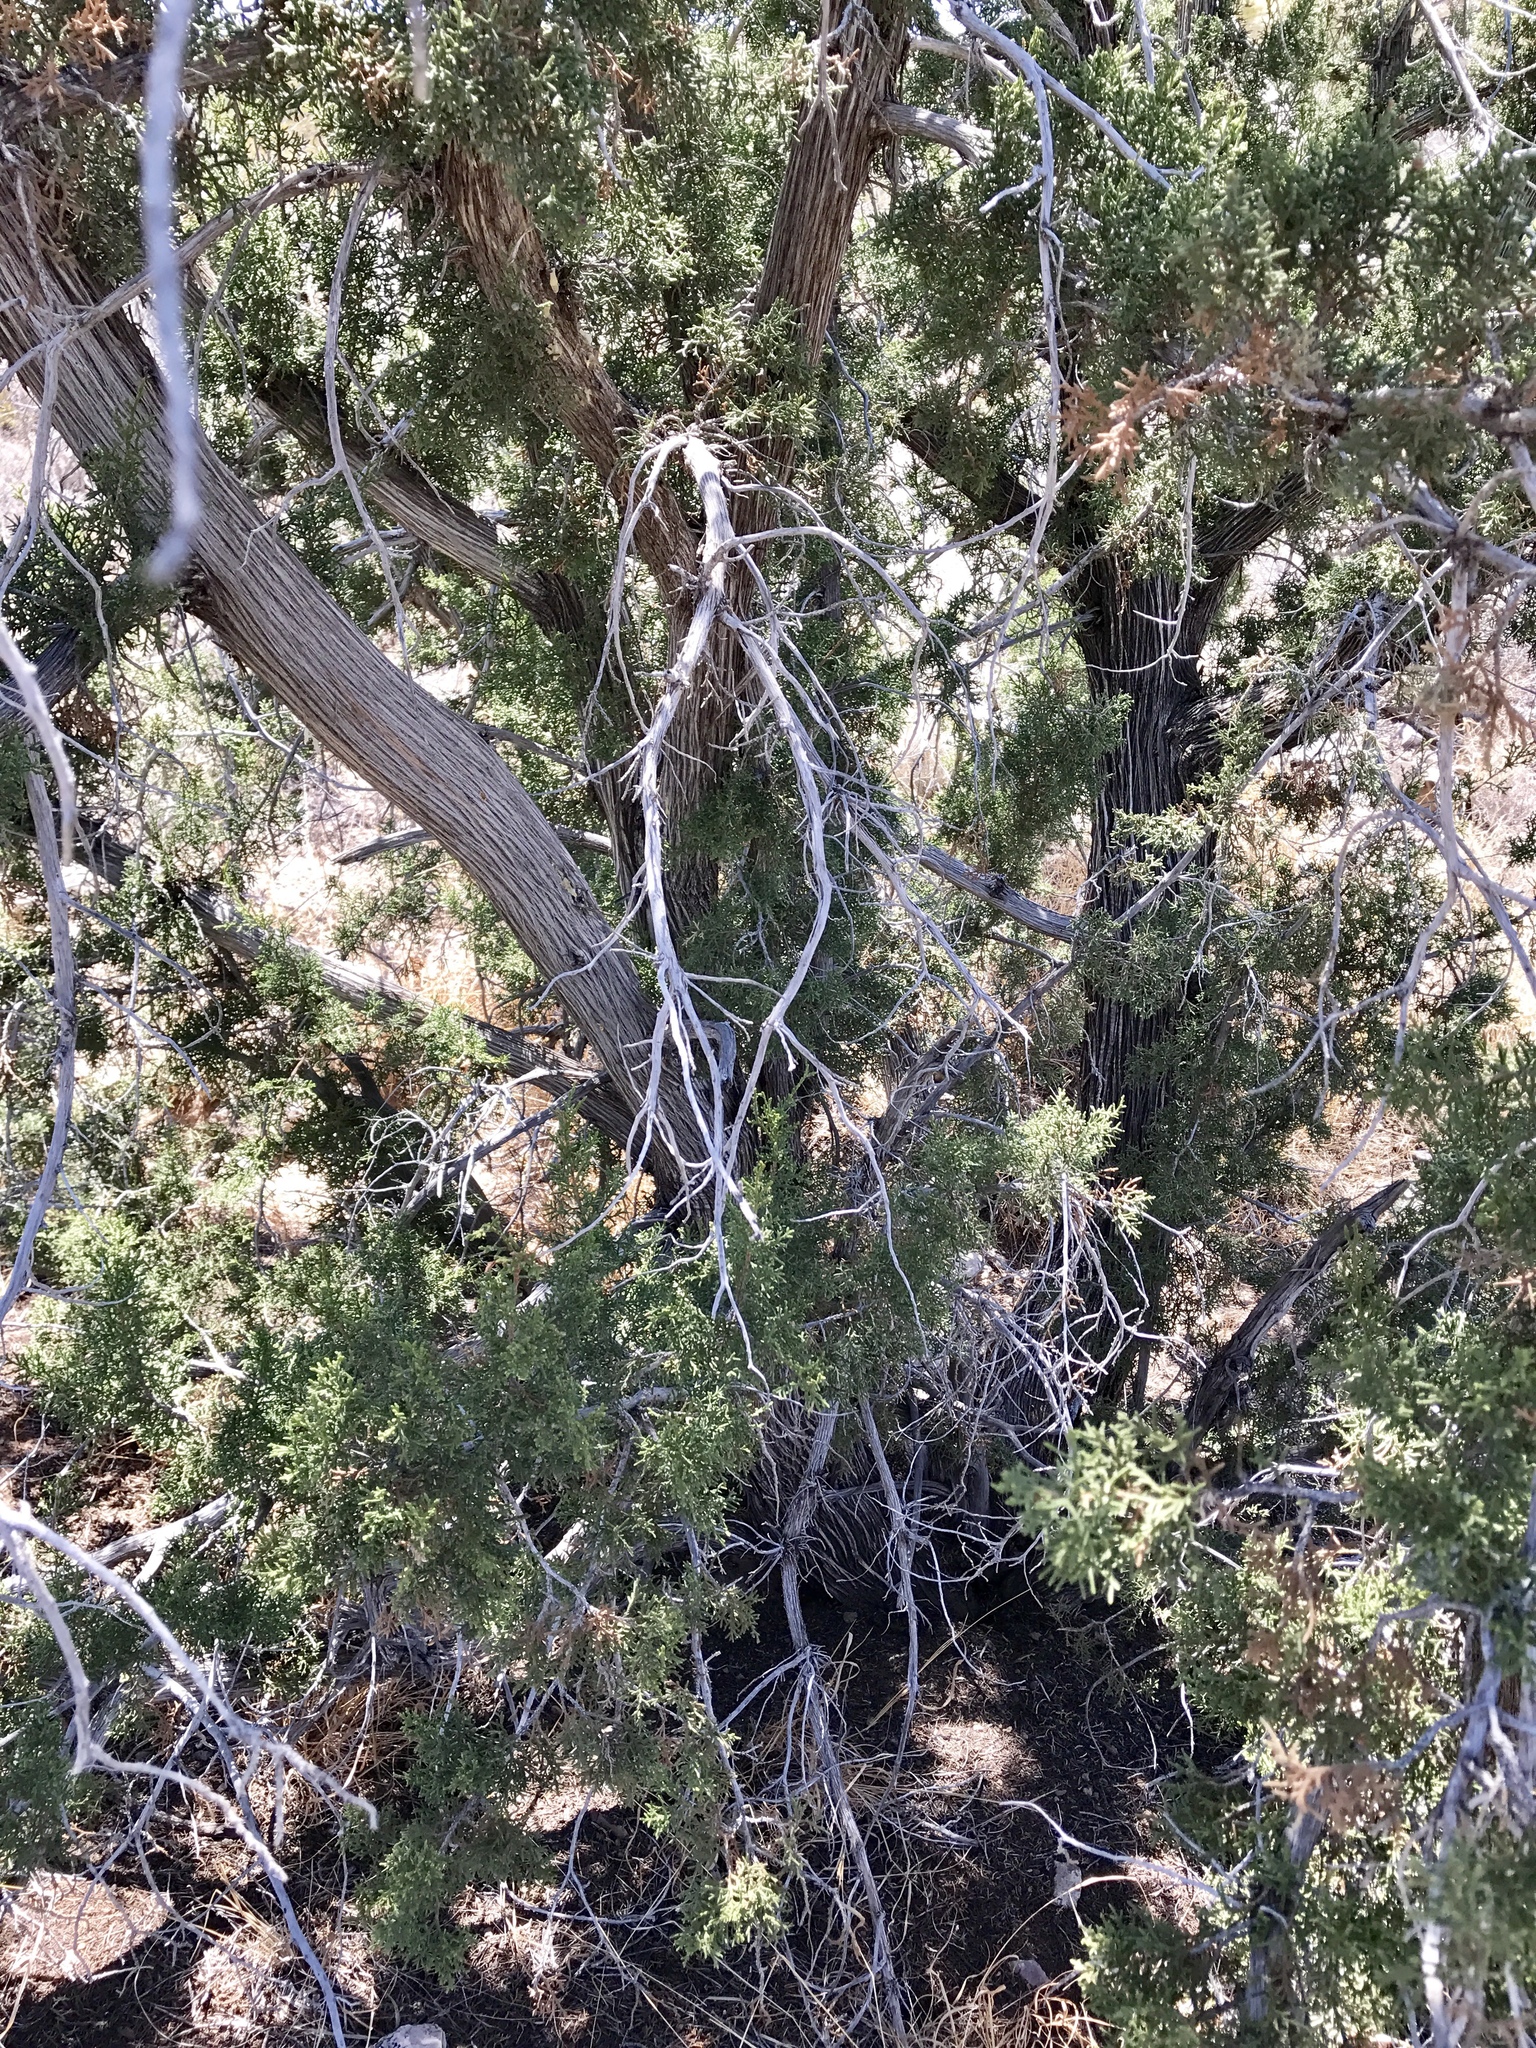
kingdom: Plantae
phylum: Tracheophyta
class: Pinopsida
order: Pinales
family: Cupressaceae
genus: Juniperus
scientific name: Juniperus monosperma
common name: One-seed juniper
